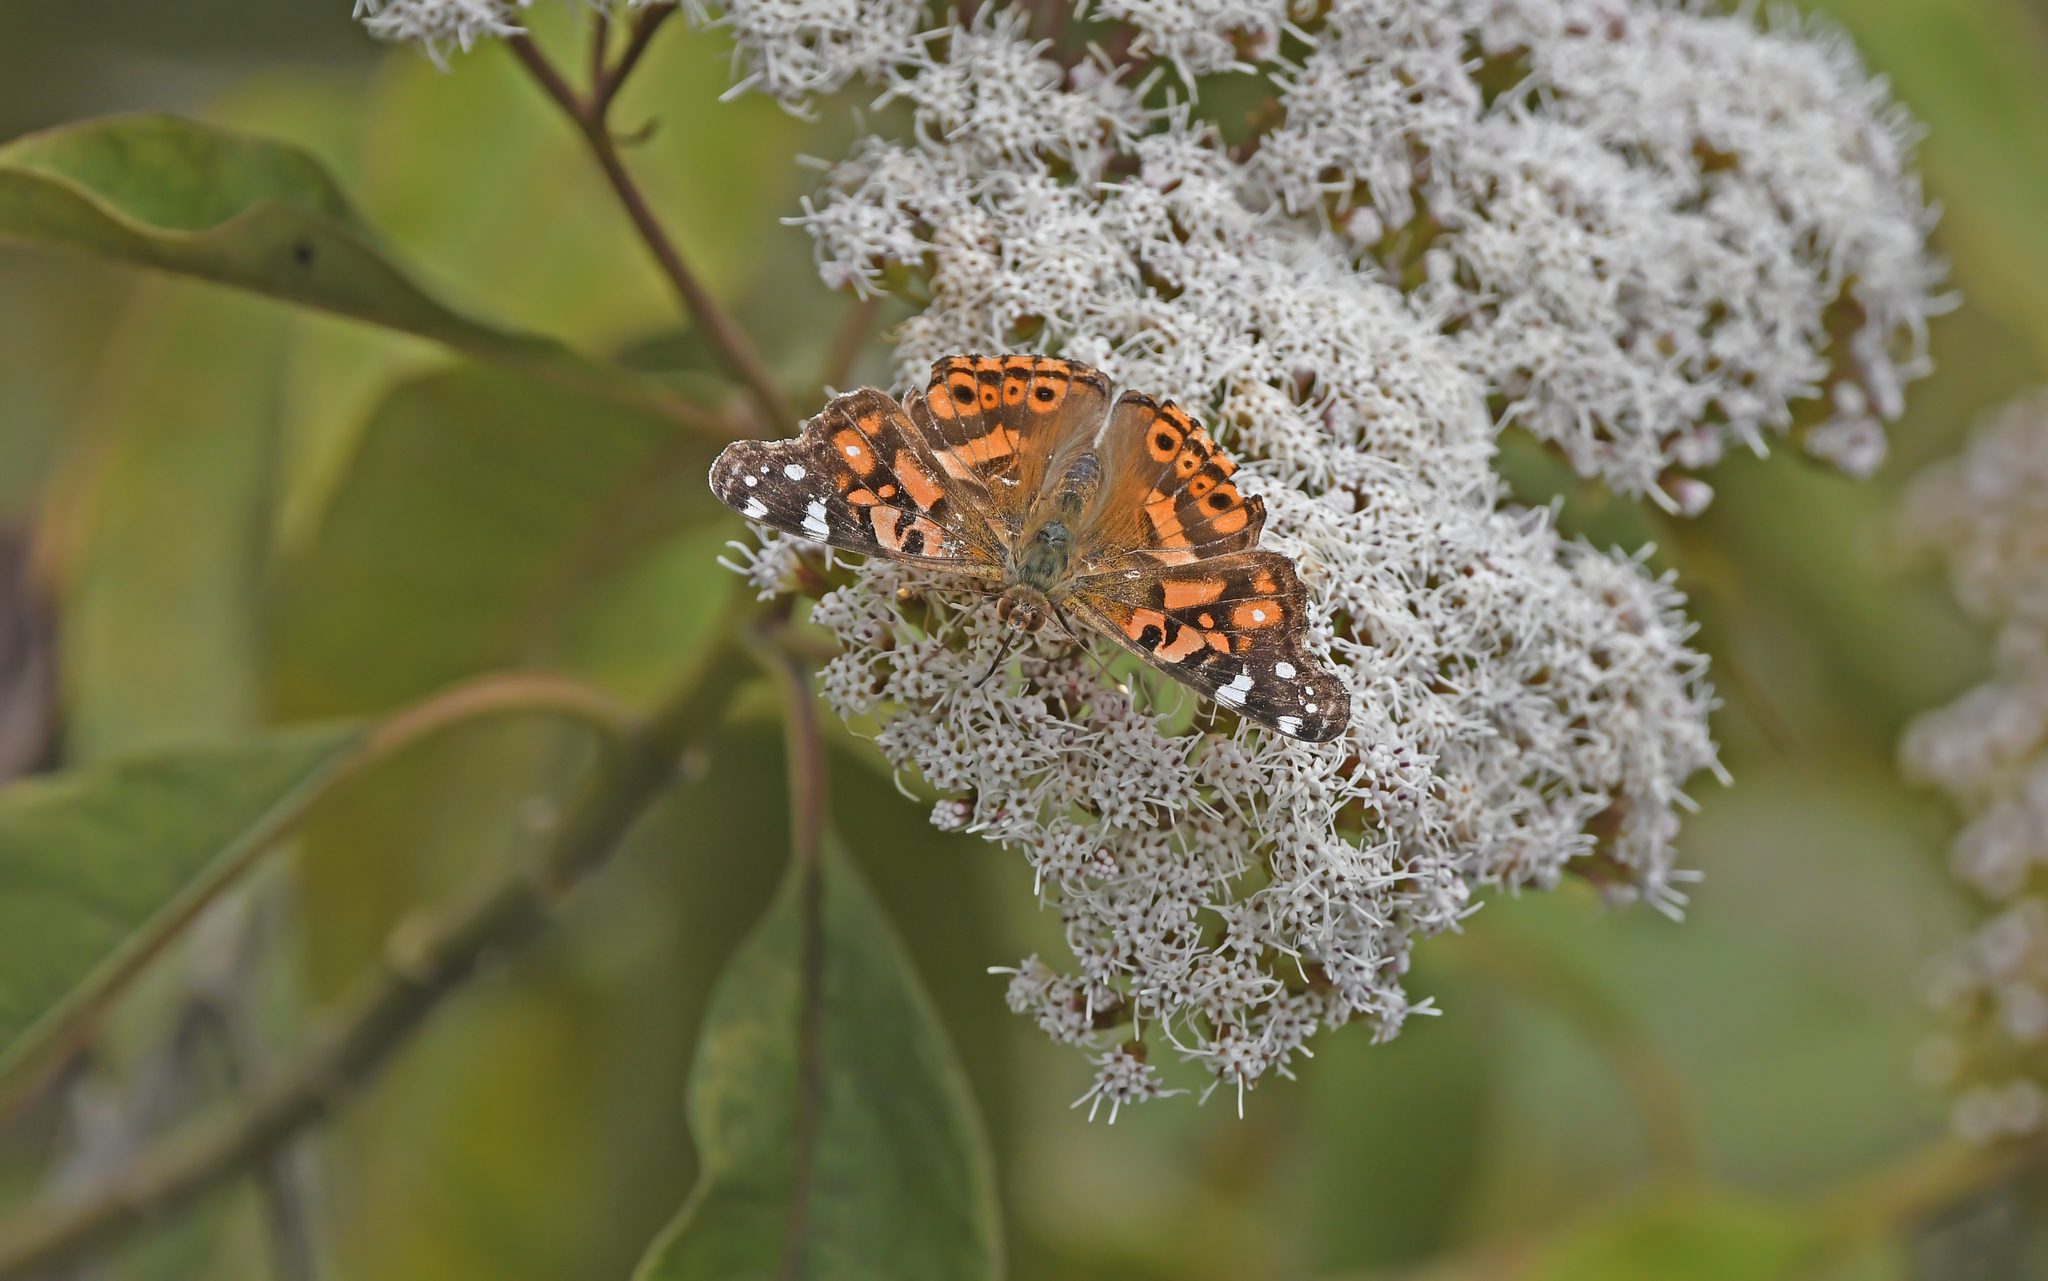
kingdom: Animalia
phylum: Arthropoda
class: Insecta
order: Lepidoptera
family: Nymphalidae
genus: Vanessa
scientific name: Vanessa altissima
